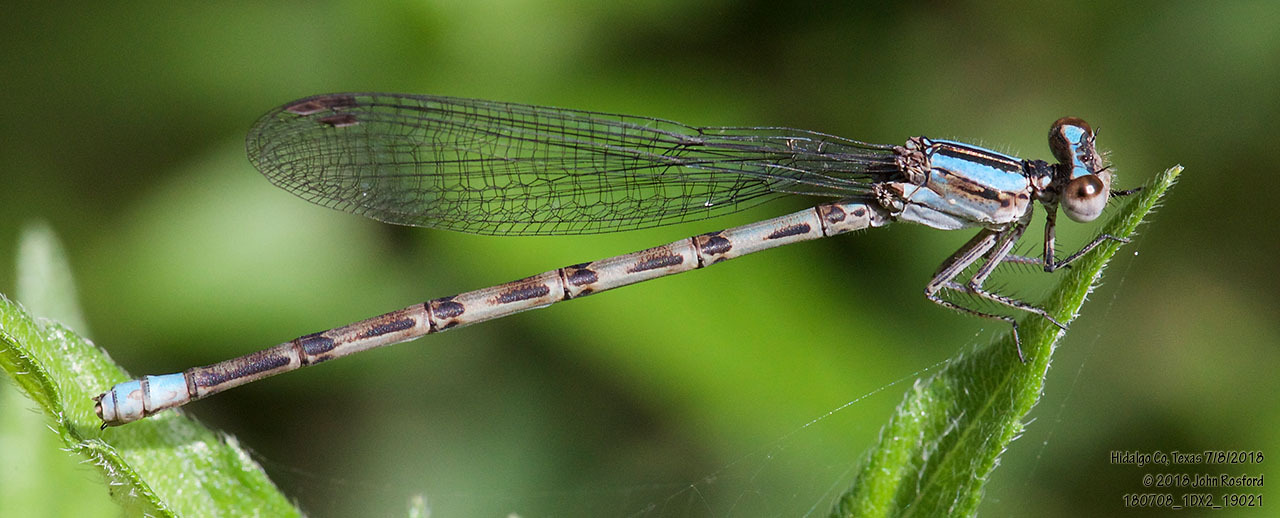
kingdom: Animalia
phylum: Arthropoda
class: Insecta
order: Odonata
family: Coenagrionidae
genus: Argia
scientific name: Argia immunda
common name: Kiowa dancer
